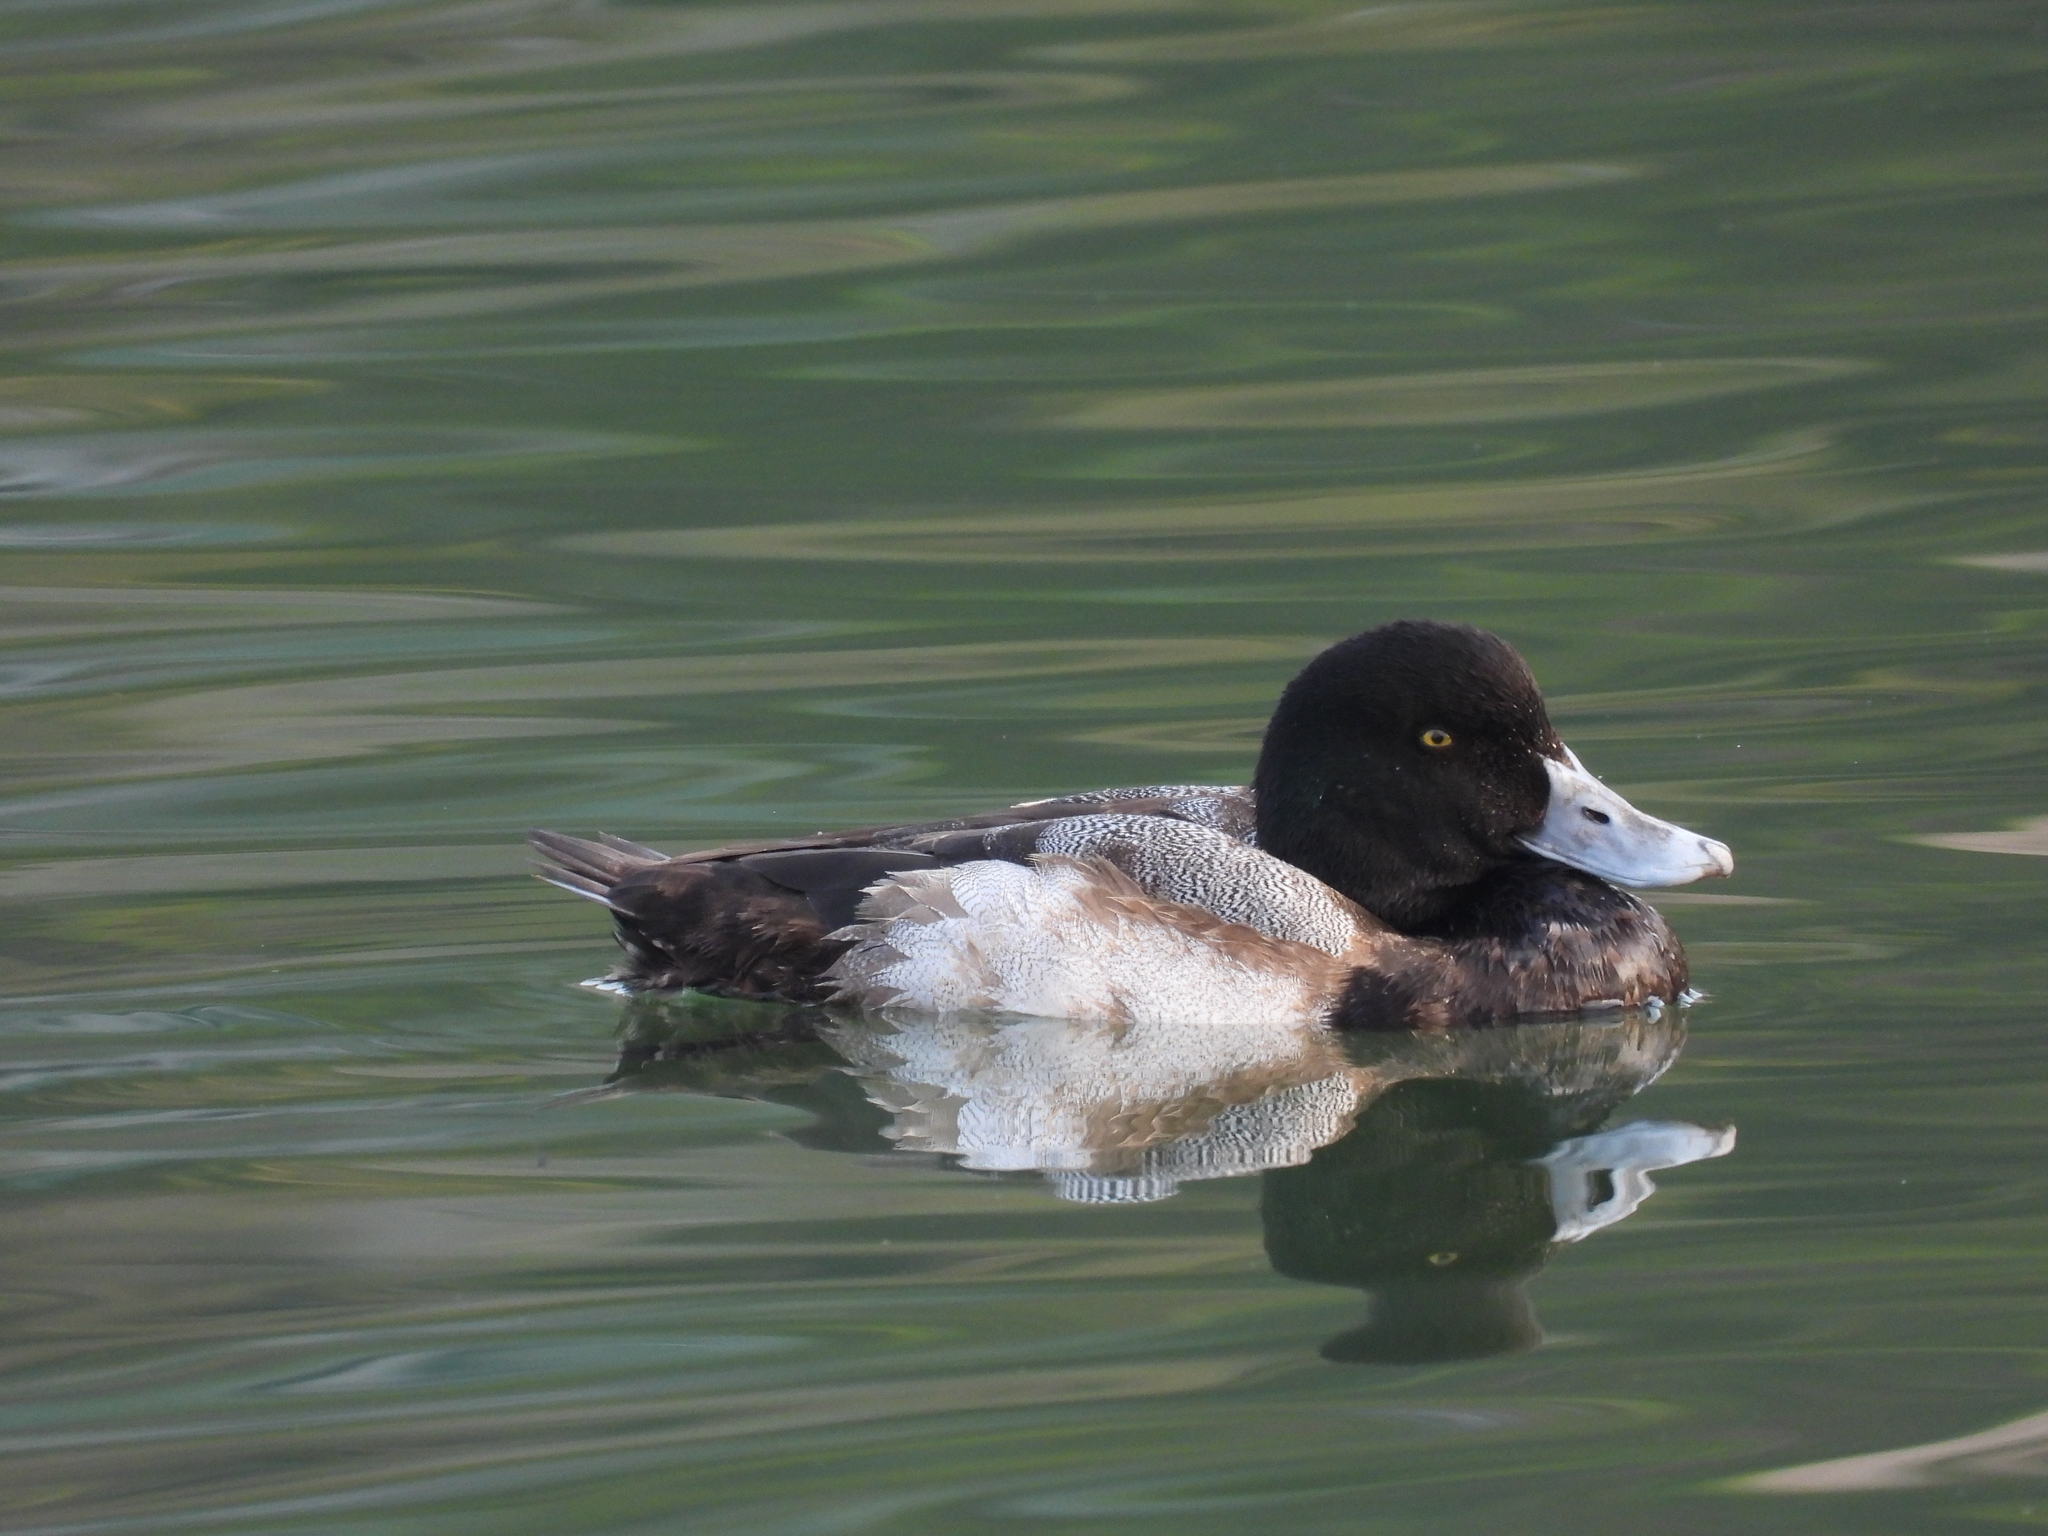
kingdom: Animalia
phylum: Chordata
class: Aves
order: Anseriformes
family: Anatidae
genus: Aythya
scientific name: Aythya marila
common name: Greater scaup
